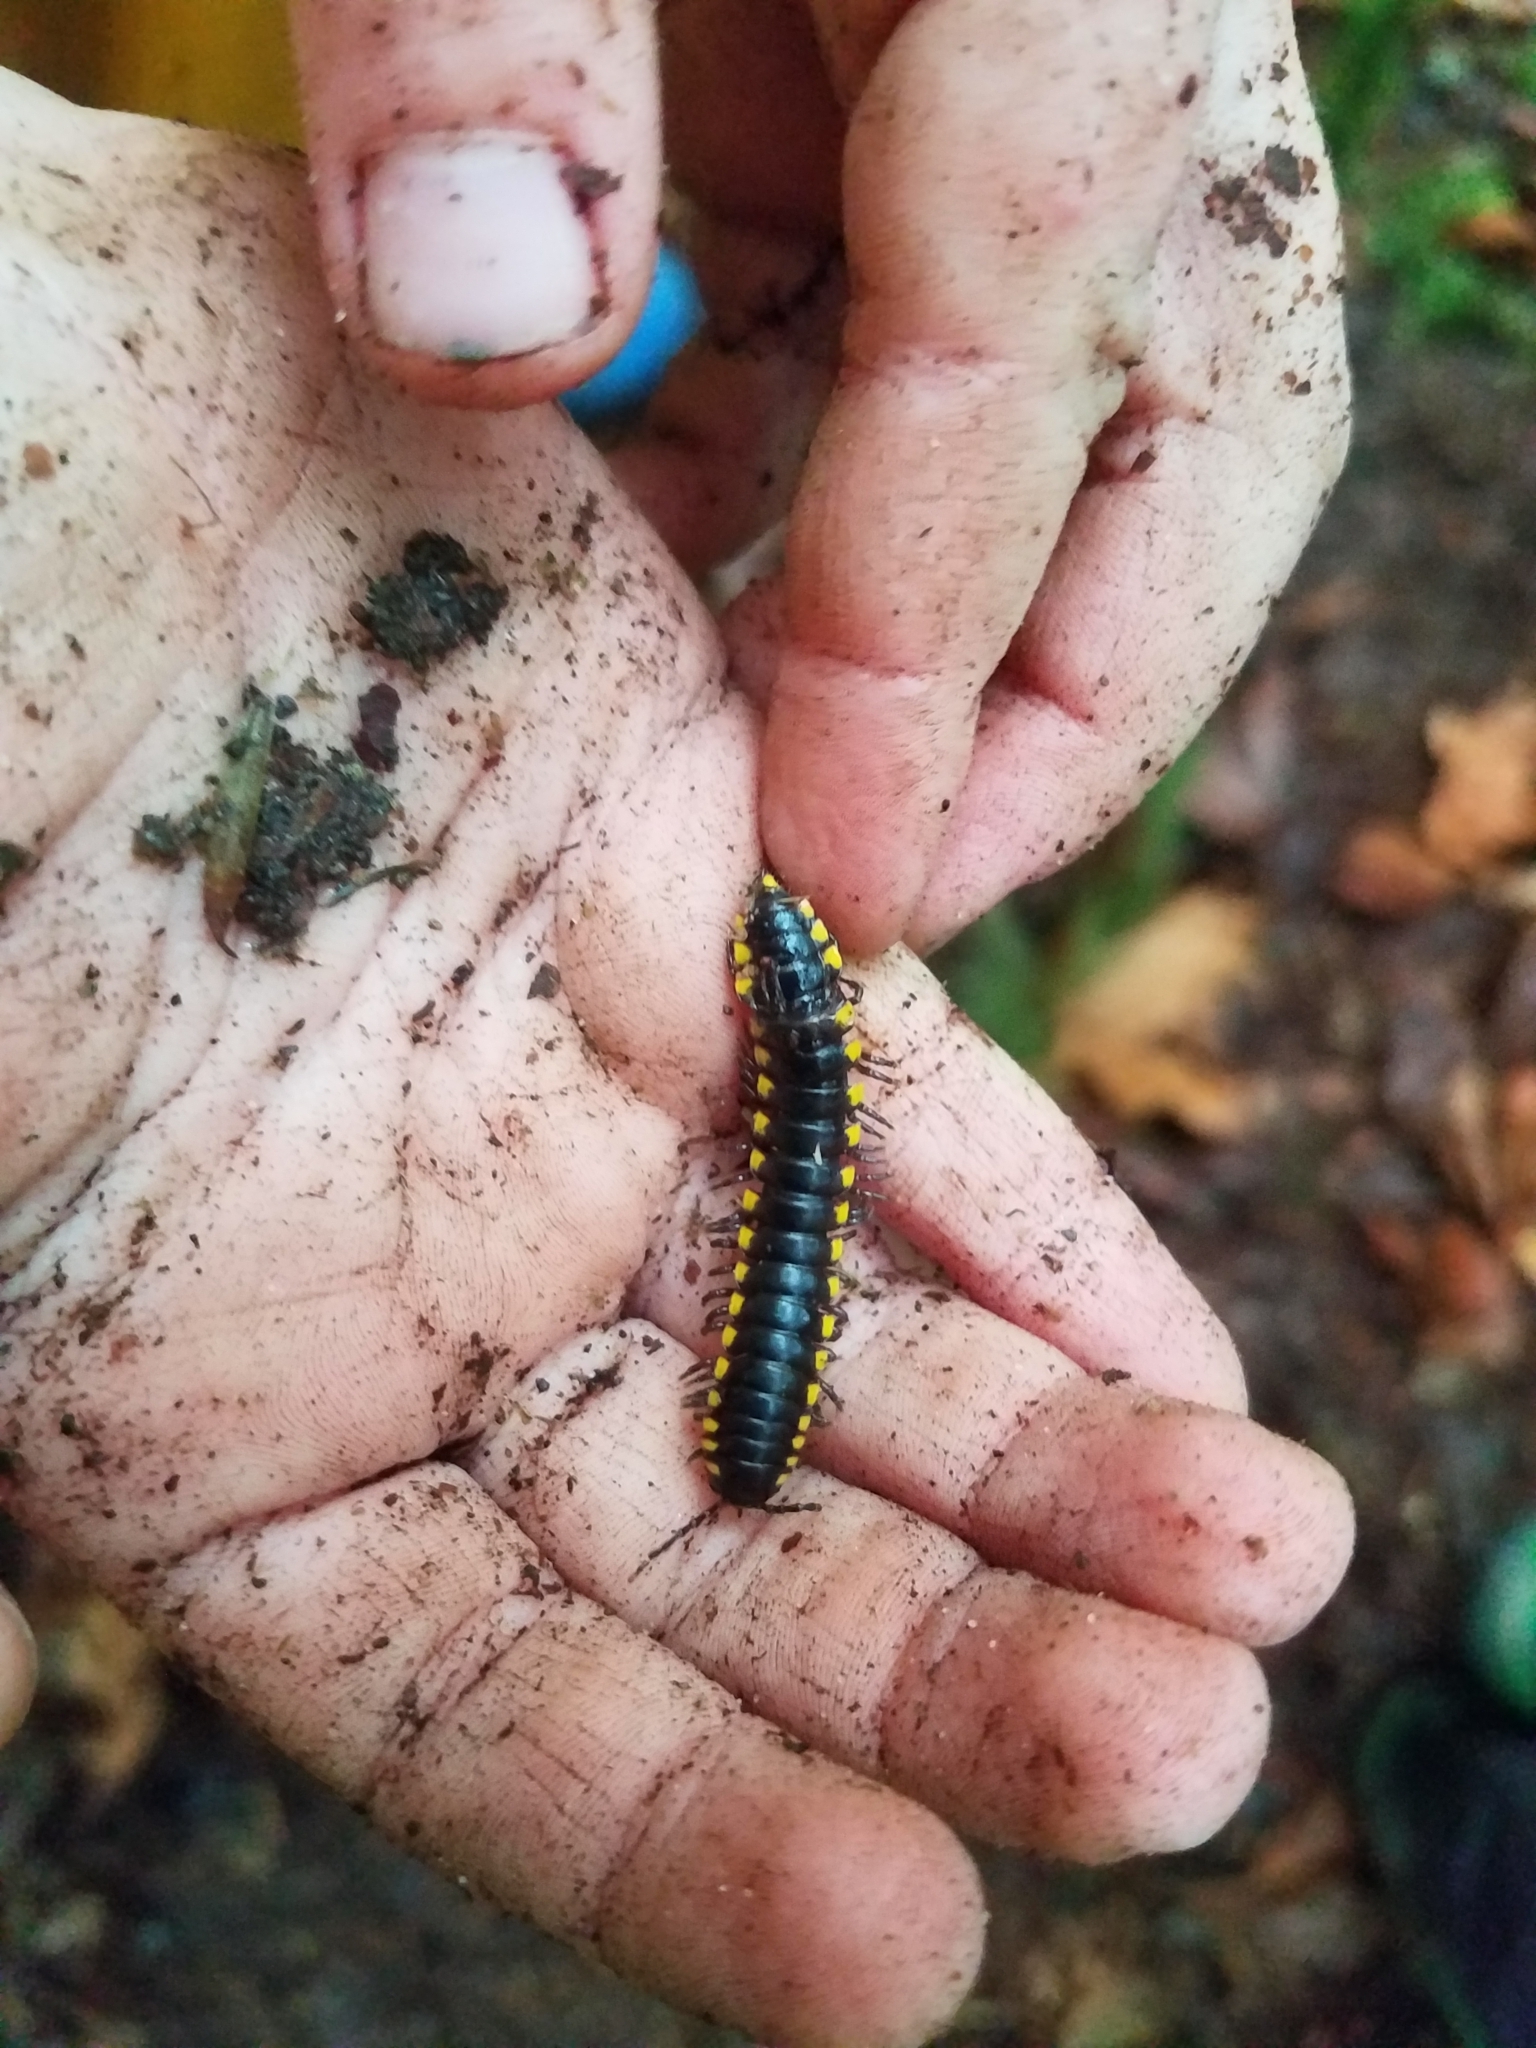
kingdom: Animalia
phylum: Arthropoda
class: Diplopoda
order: Polydesmida
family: Xystodesmidae
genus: Harpaphe
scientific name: Harpaphe haydeniana
